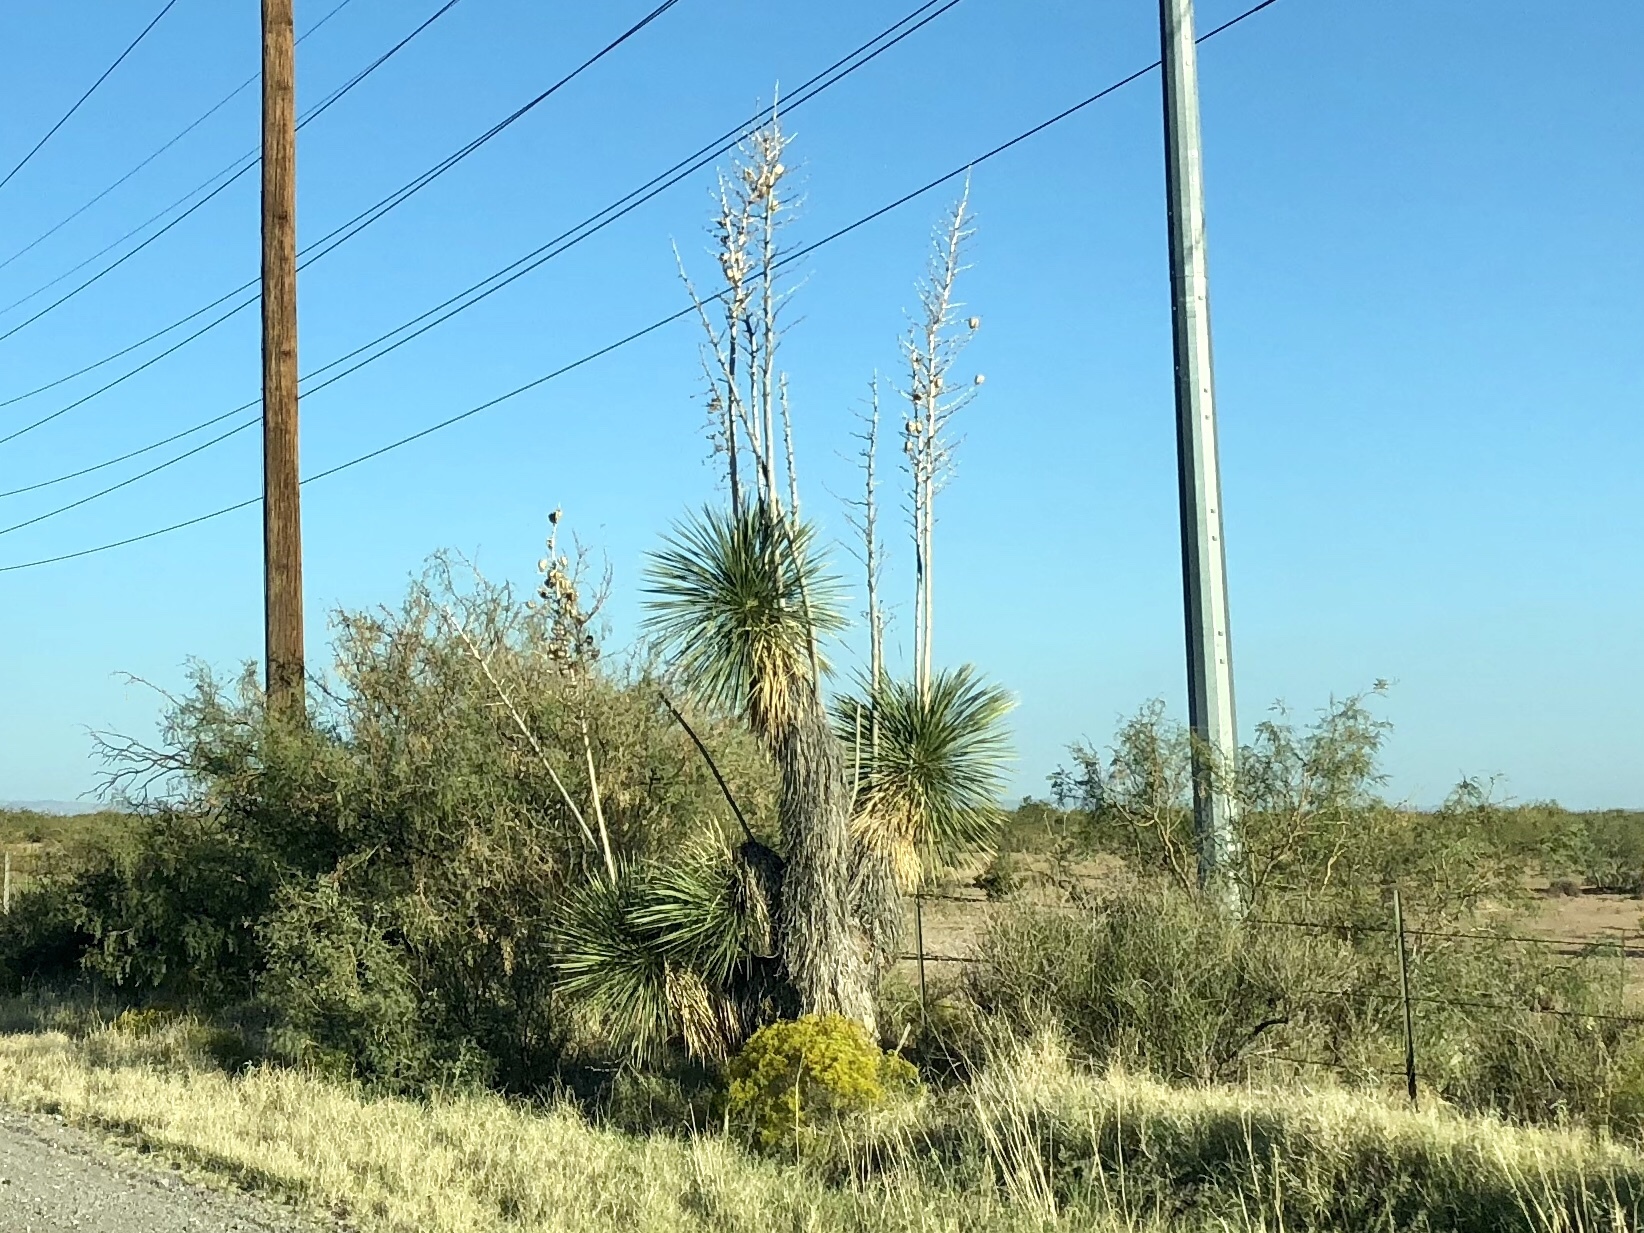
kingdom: Plantae
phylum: Tracheophyta
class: Liliopsida
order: Asparagales
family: Asparagaceae
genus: Yucca
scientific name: Yucca elata
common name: Palmella
